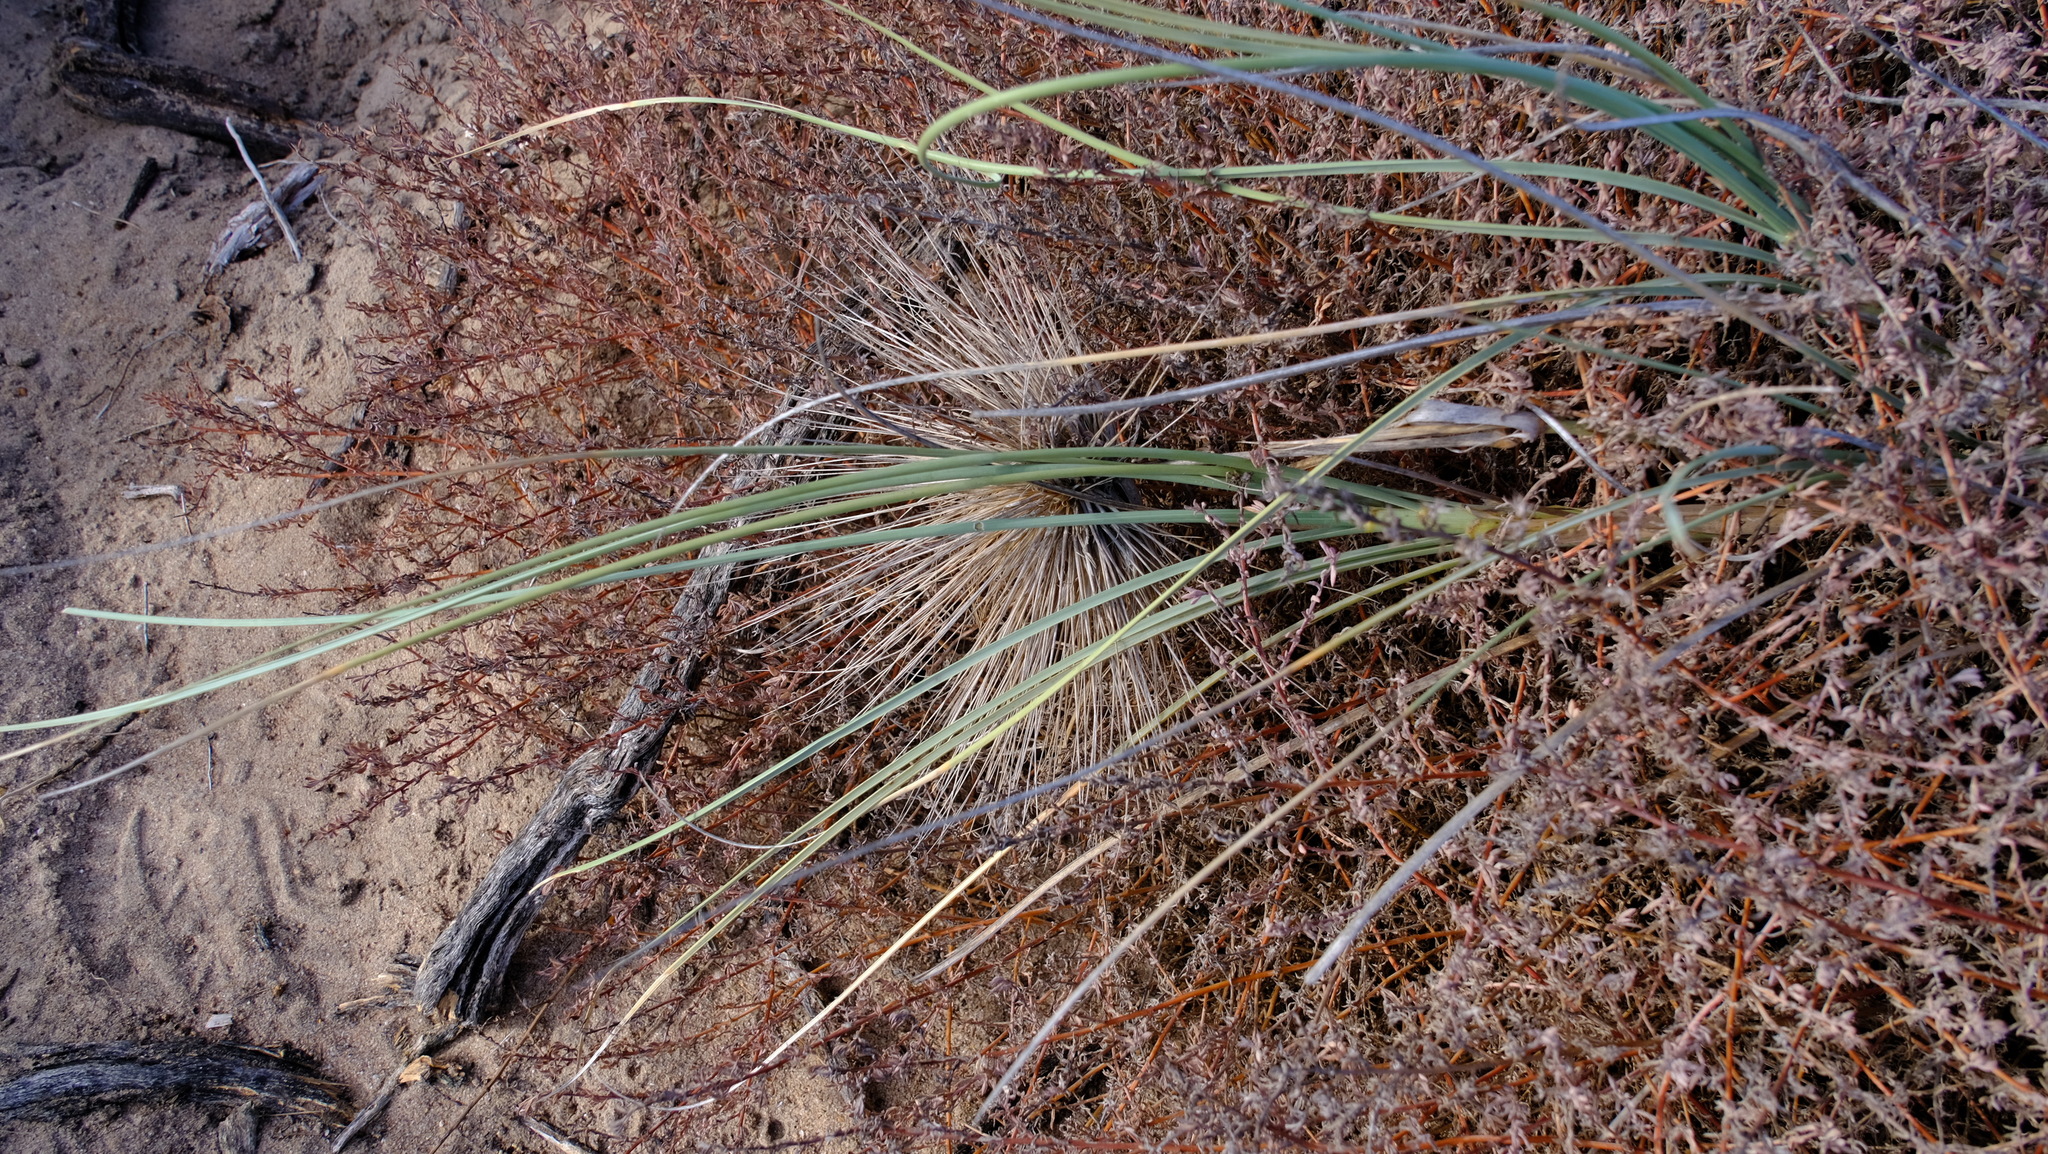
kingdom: Plantae
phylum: Tracheophyta
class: Liliopsida
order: Poales
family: Poaceae
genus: Spinifex
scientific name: Spinifex longifolius
